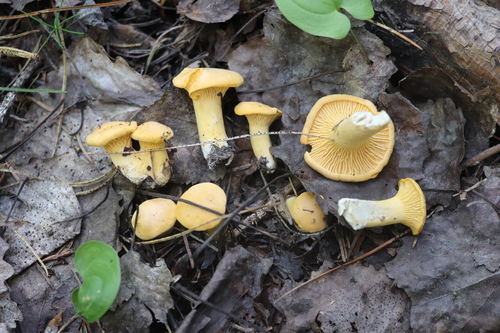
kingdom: Fungi
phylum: Basidiomycota
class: Agaricomycetes
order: Cantharellales
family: Hydnaceae
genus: Cantharellus
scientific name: Cantharellus cibarius
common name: Chanterelle
